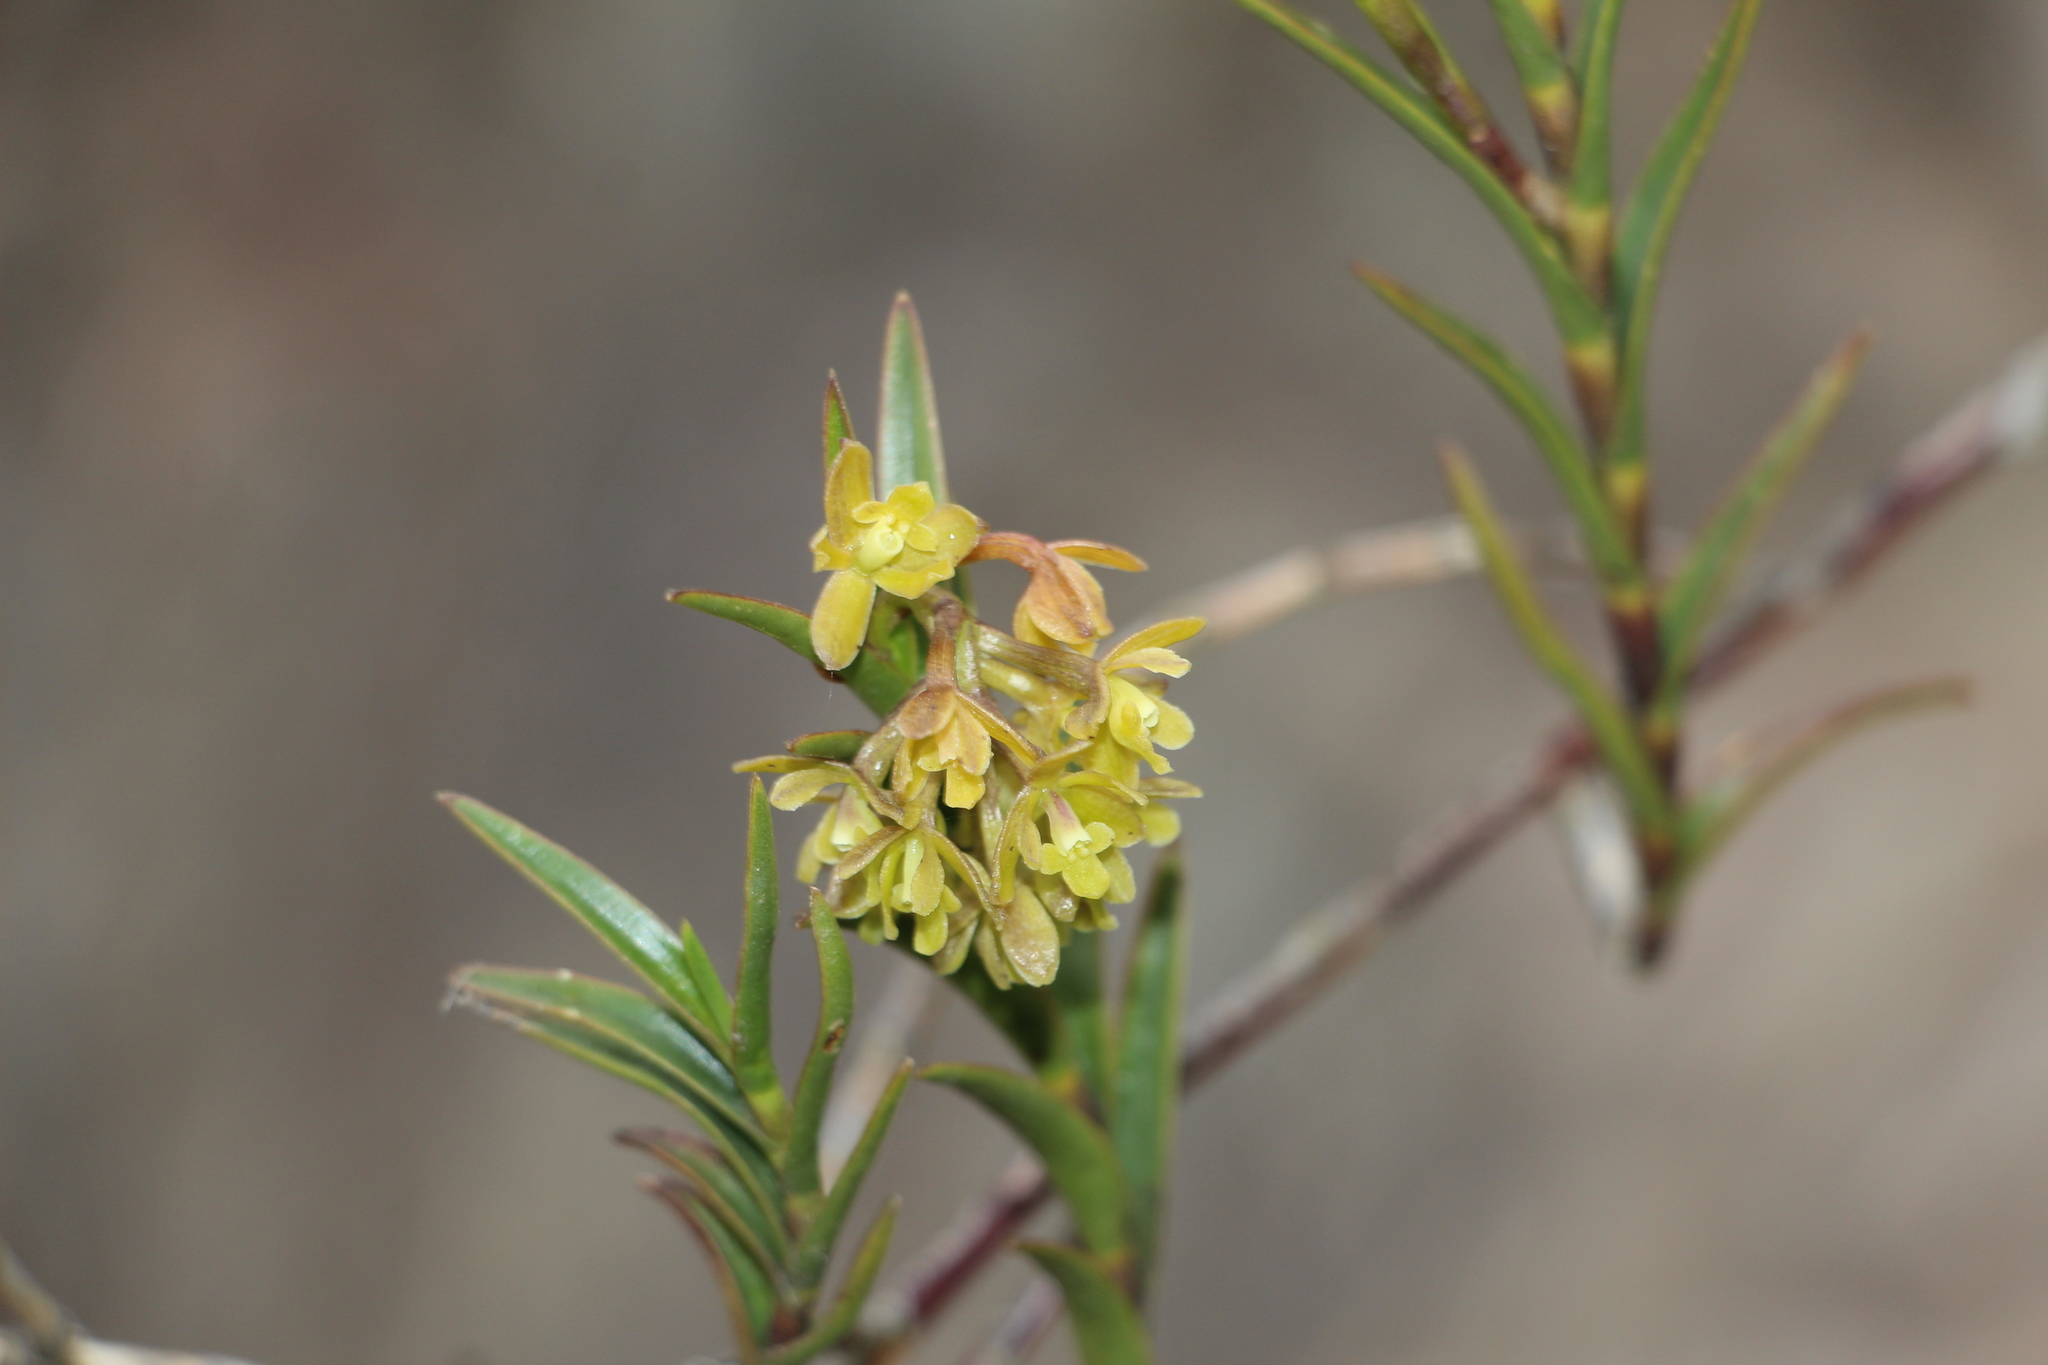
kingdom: Plantae
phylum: Tracheophyta
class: Liliopsida
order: Asparagales
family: Orchidaceae
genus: Epidendrum
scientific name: Epidendrum zipaquiranum
